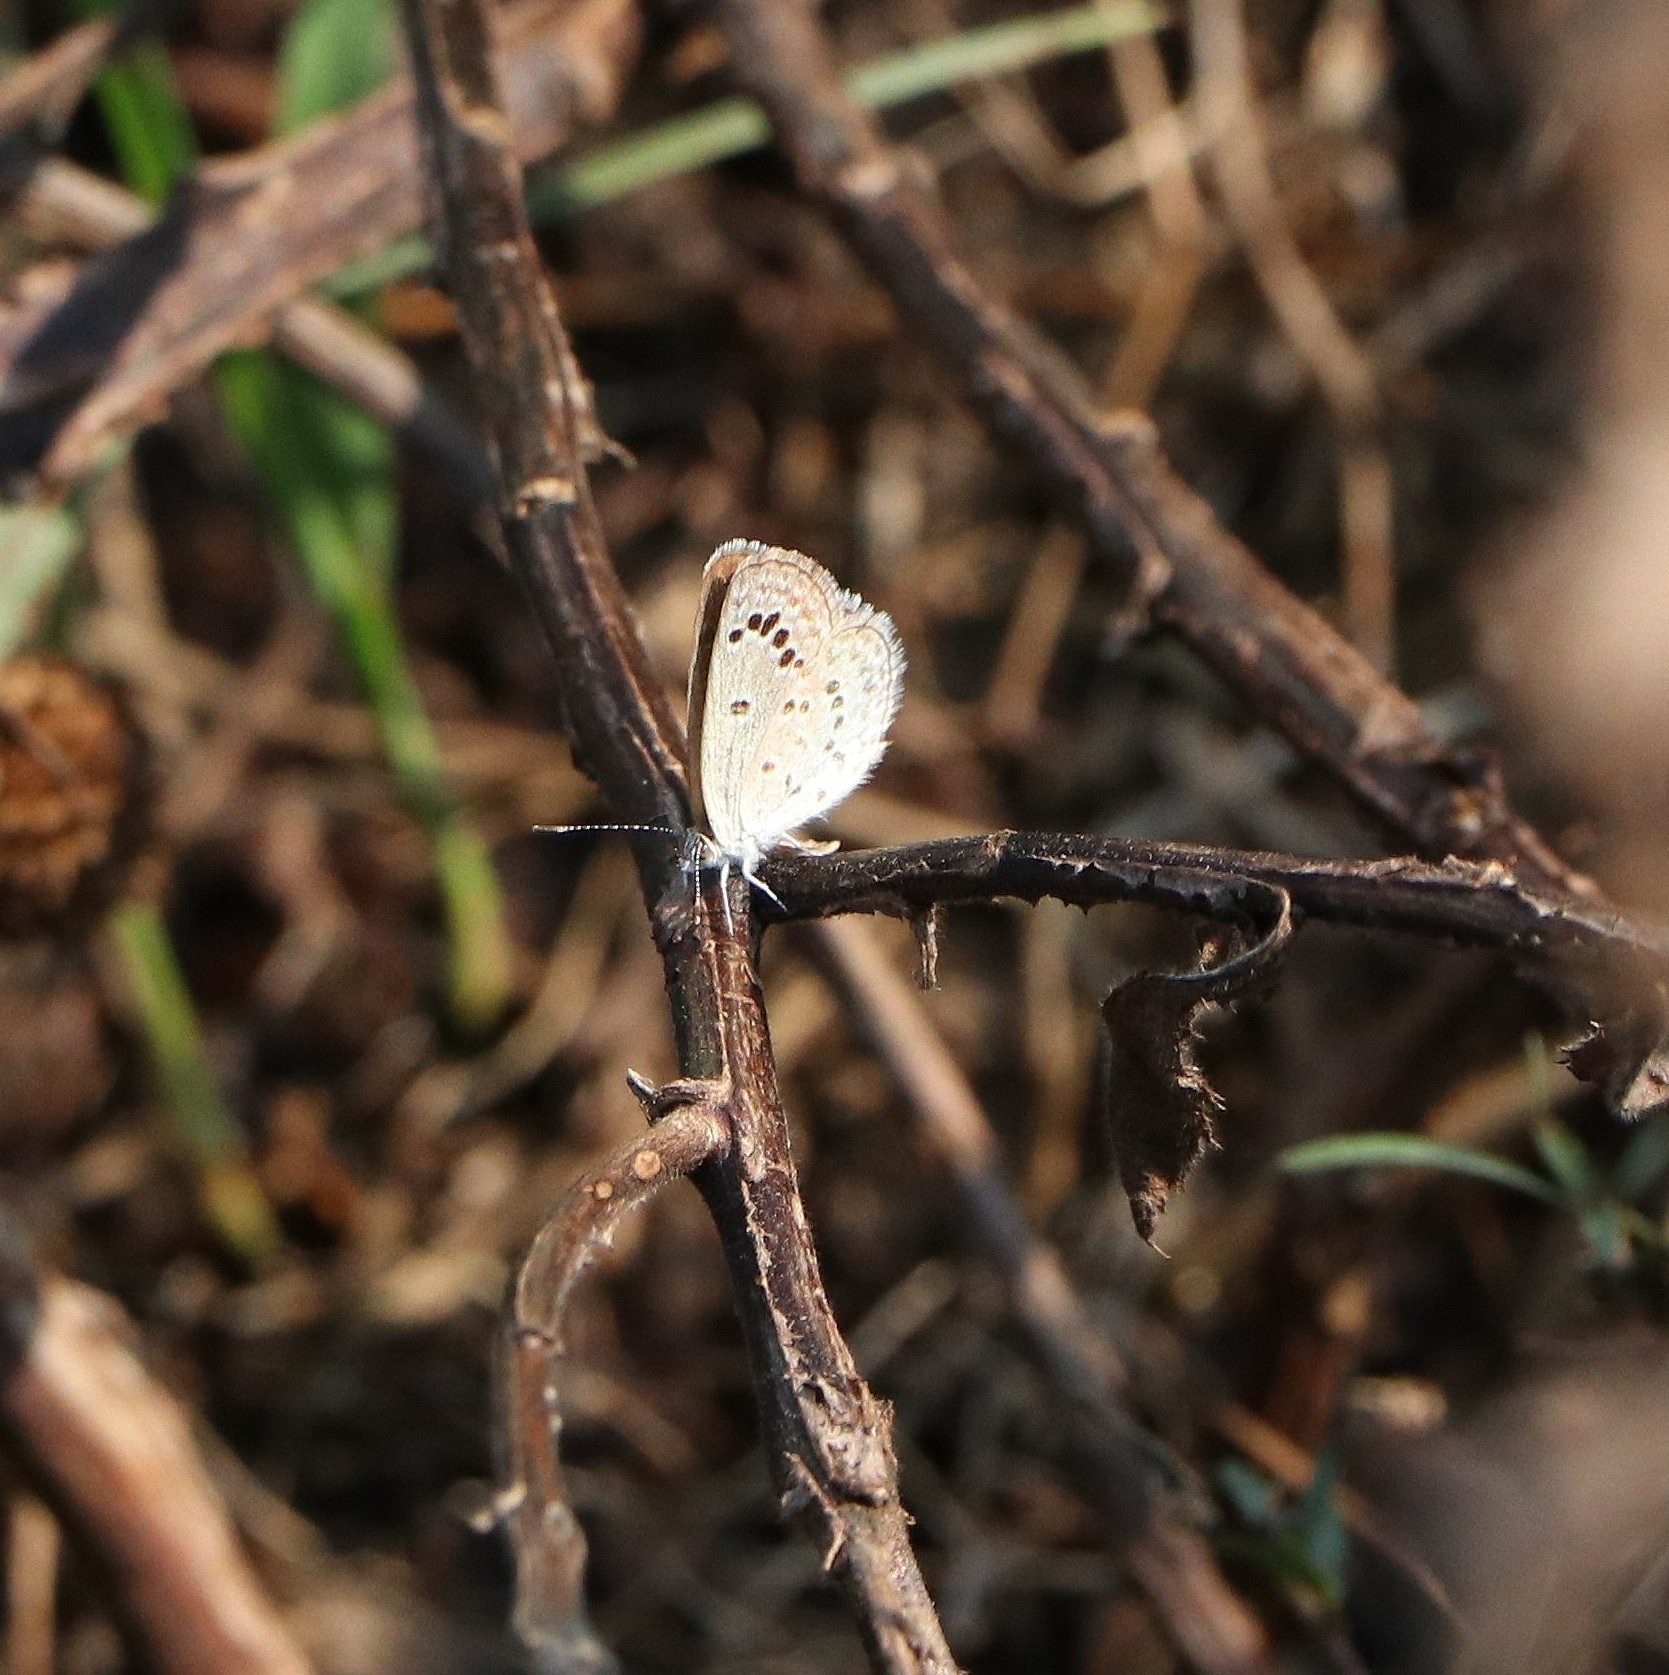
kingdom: Animalia
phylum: Arthropoda
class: Insecta
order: Lepidoptera
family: Lycaenidae
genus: Zizina
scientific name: Zizina otis
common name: Lesser grass blue
